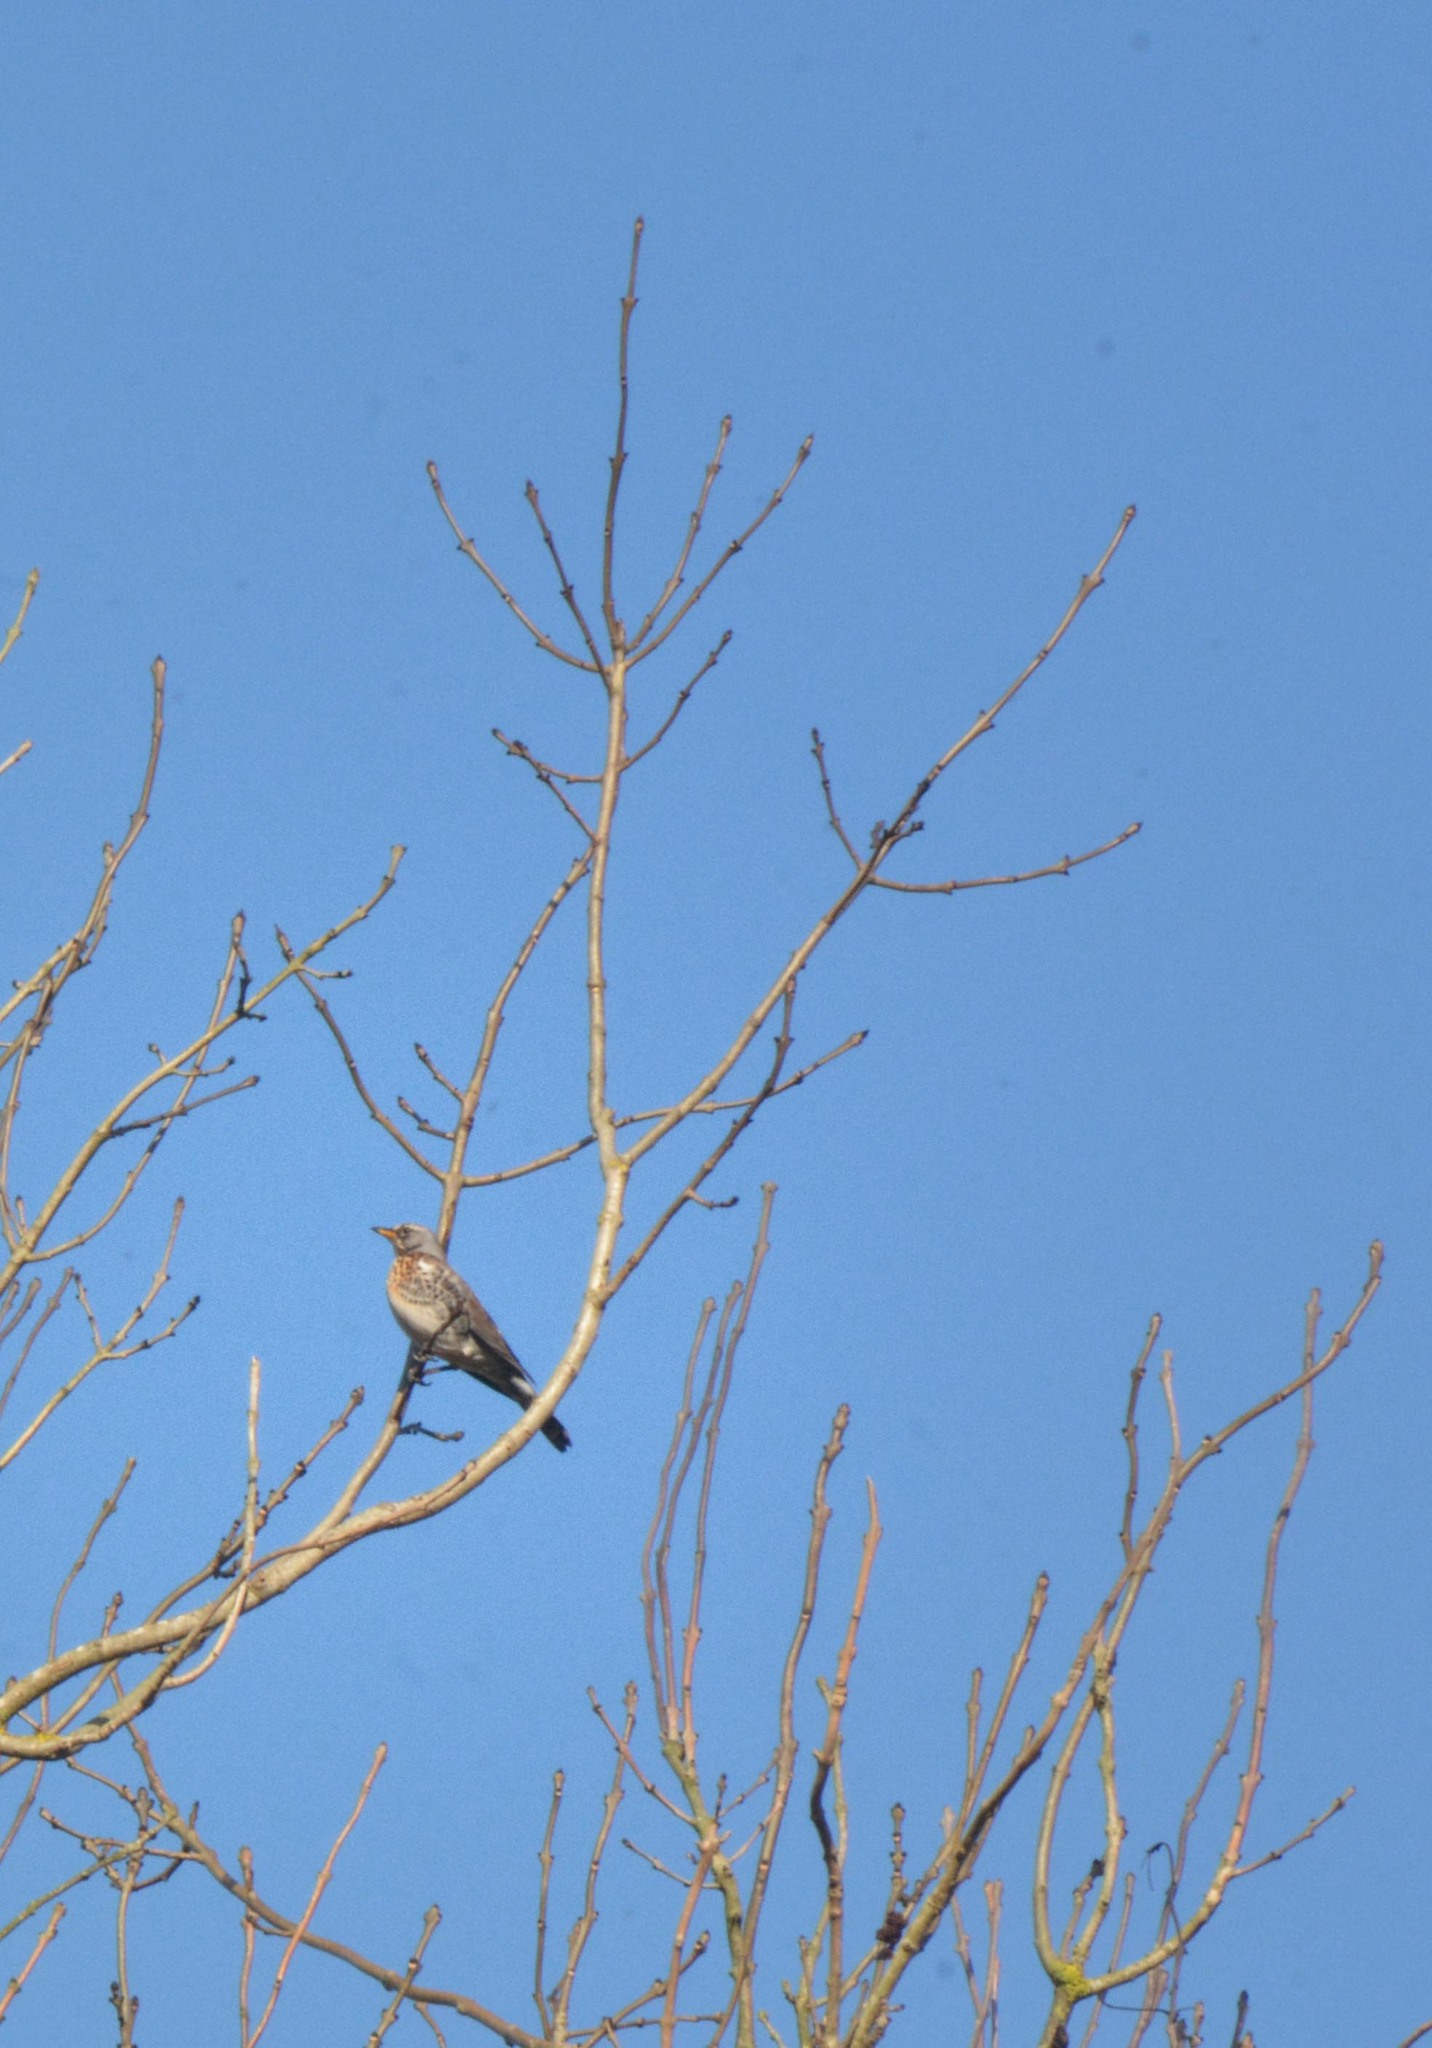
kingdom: Animalia
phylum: Chordata
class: Aves
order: Passeriformes
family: Turdidae
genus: Turdus
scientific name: Turdus pilaris
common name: Fieldfare
